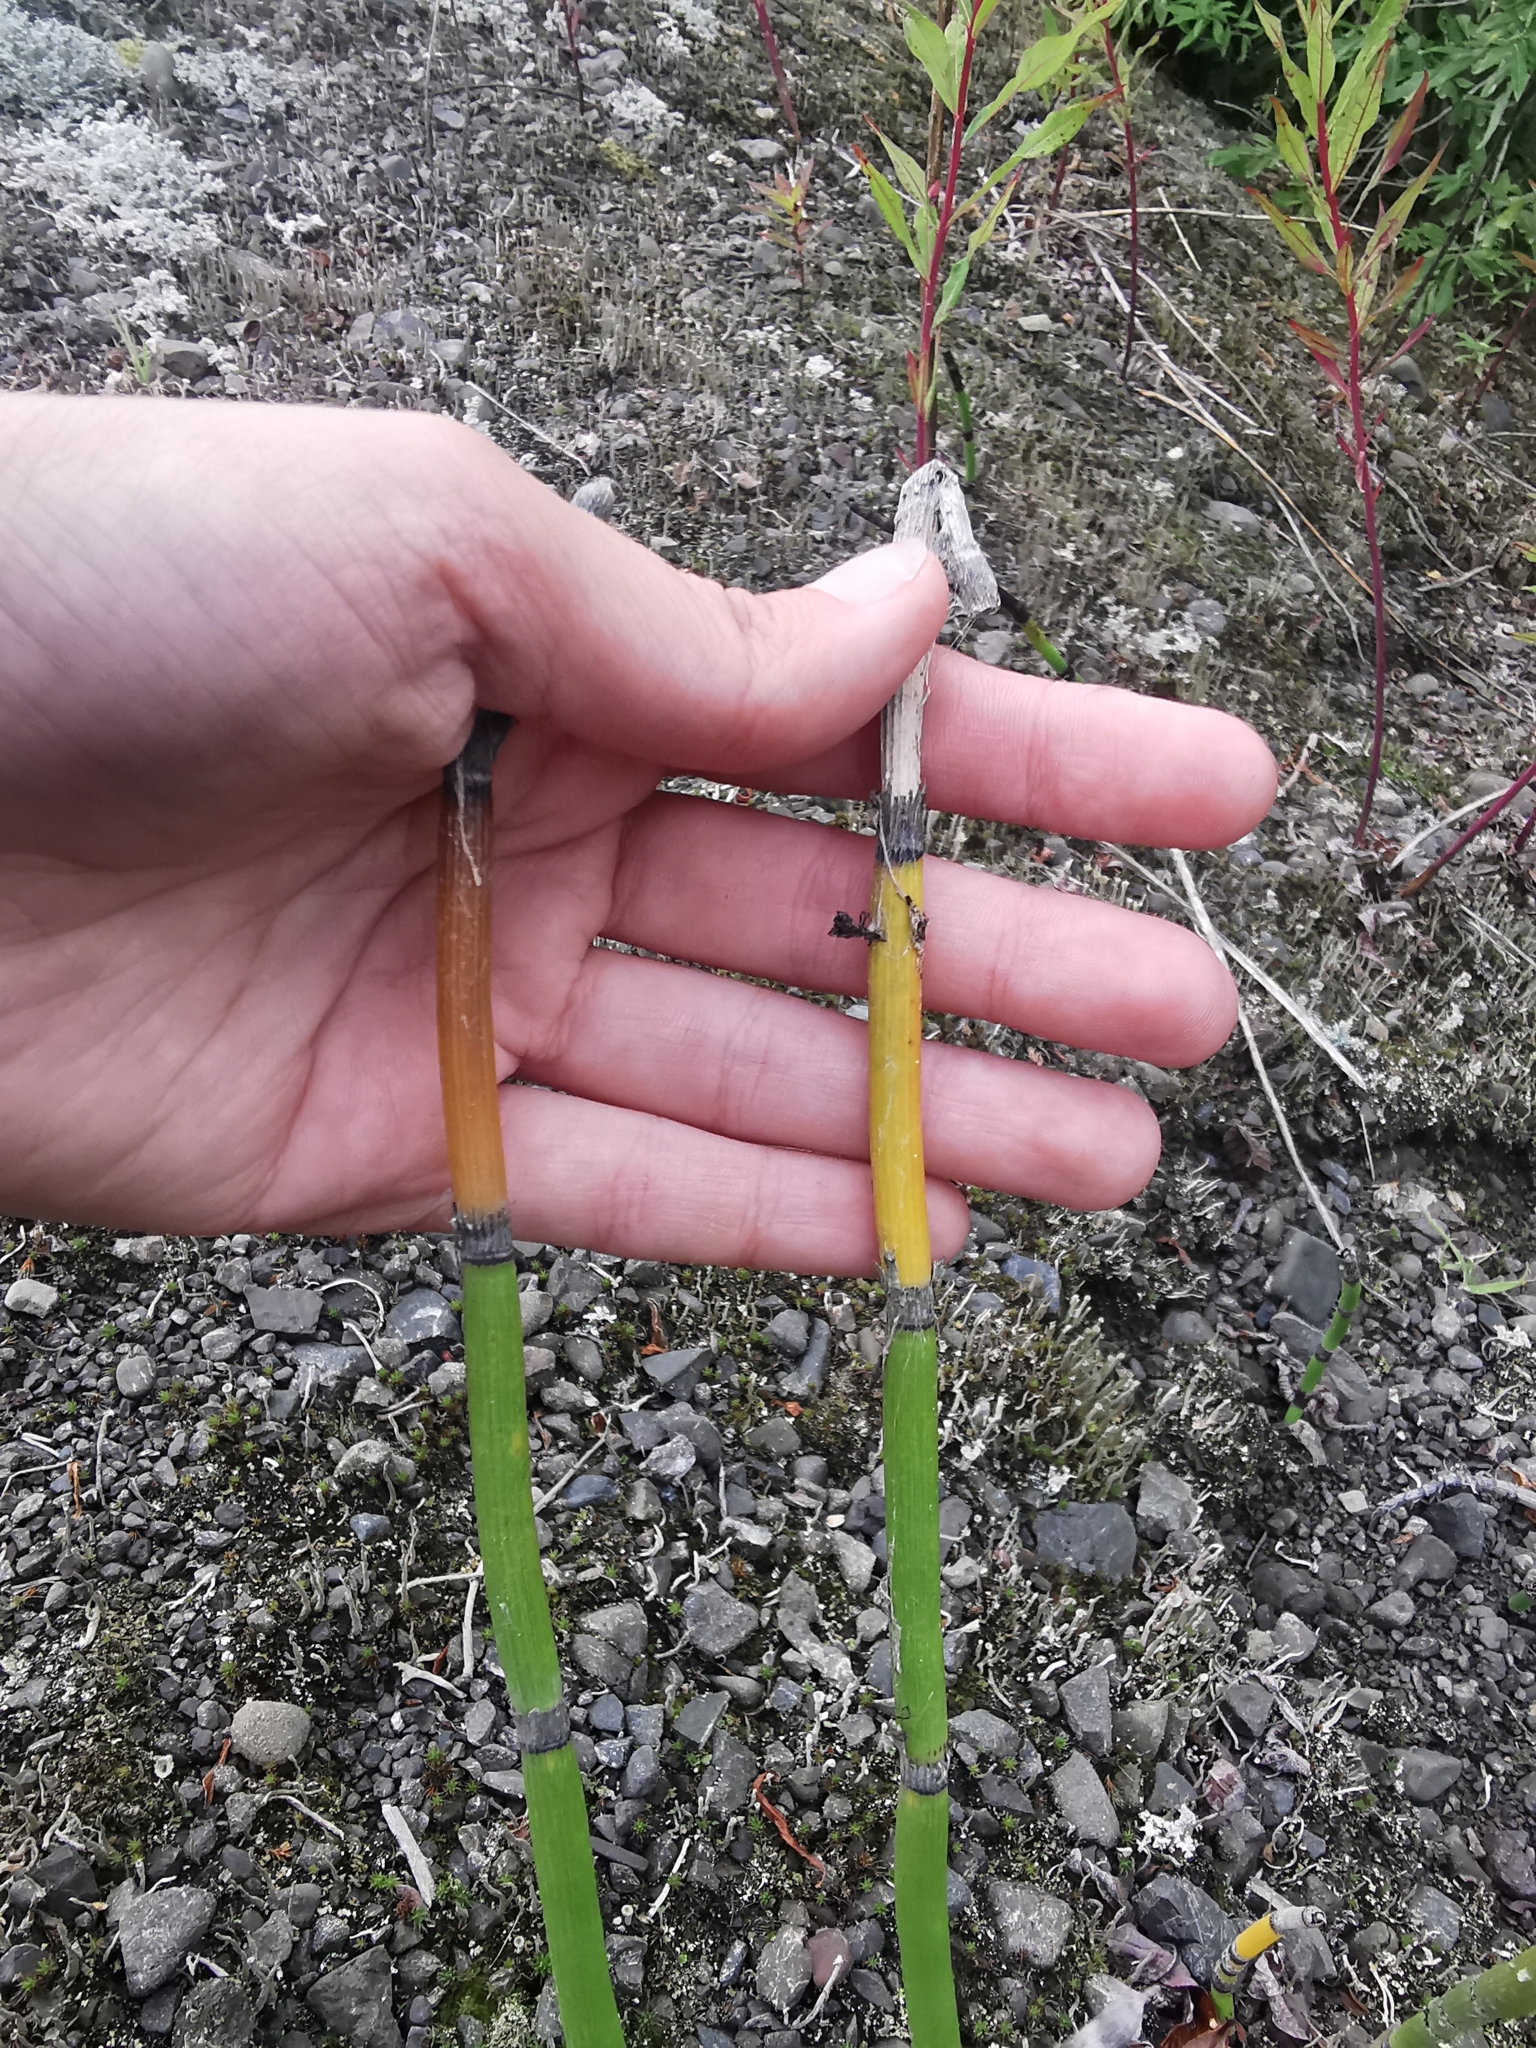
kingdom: Plantae
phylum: Tracheophyta
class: Polypodiopsida
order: Equisetales
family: Equisetaceae
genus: Equisetum
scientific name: Equisetum hyemale
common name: Rough horsetail
